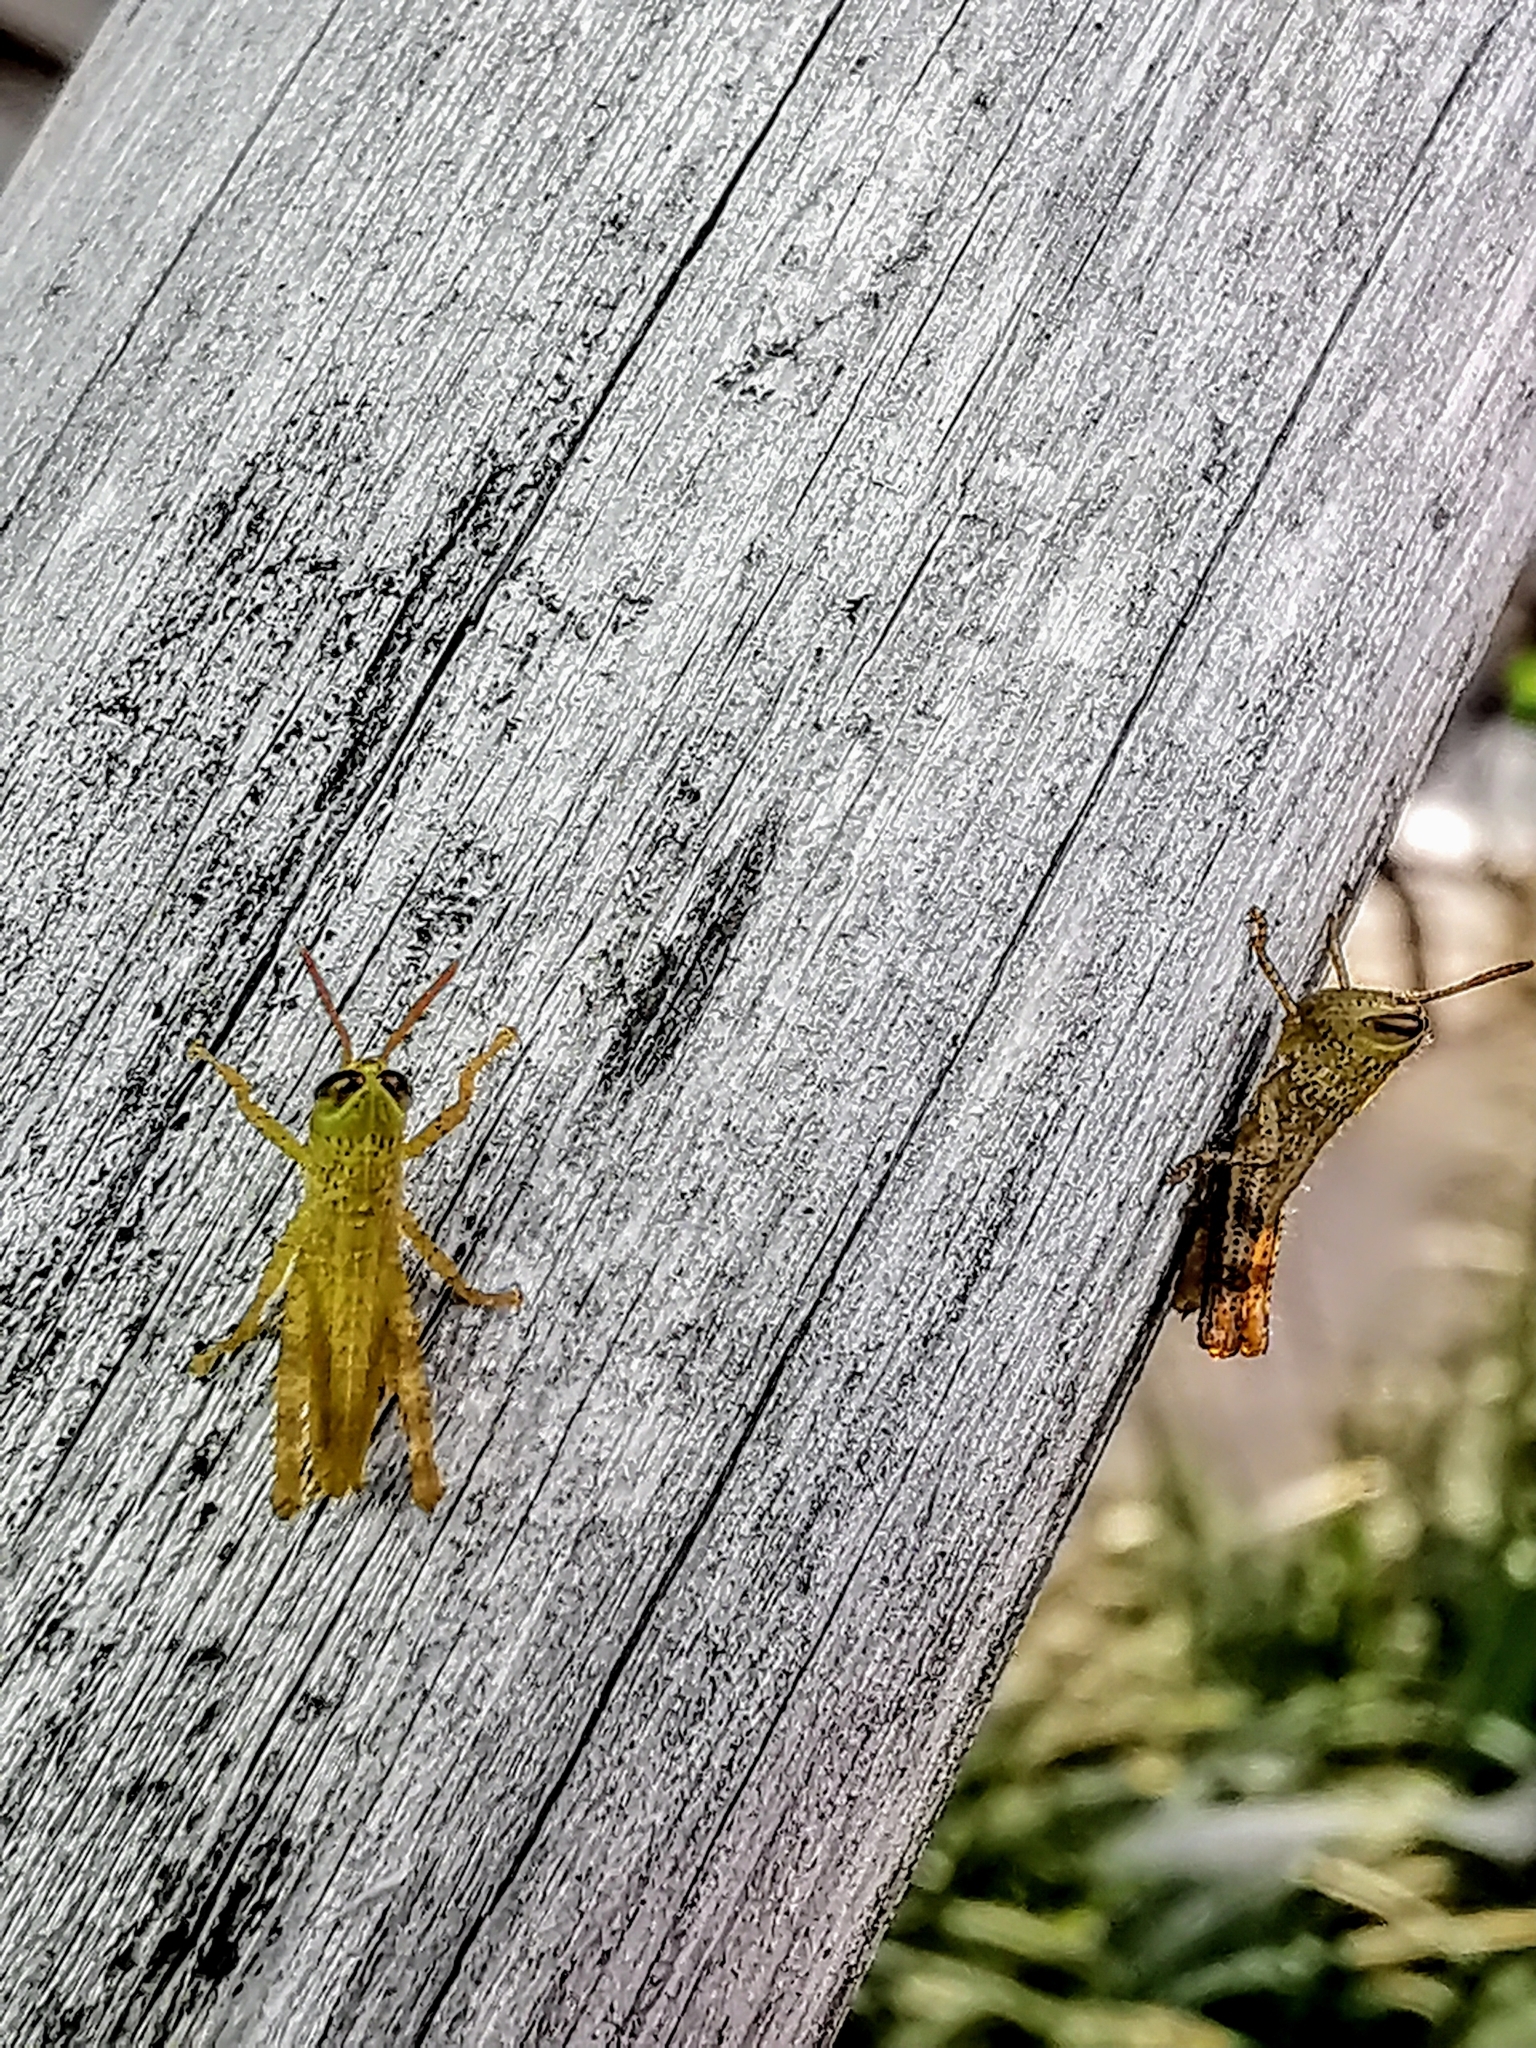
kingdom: Animalia
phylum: Arthropoda
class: Insecta
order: Orthoptera
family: Acrididae
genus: Valanga
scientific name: Valanga nigricornis
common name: Javanese bird grasshopper
